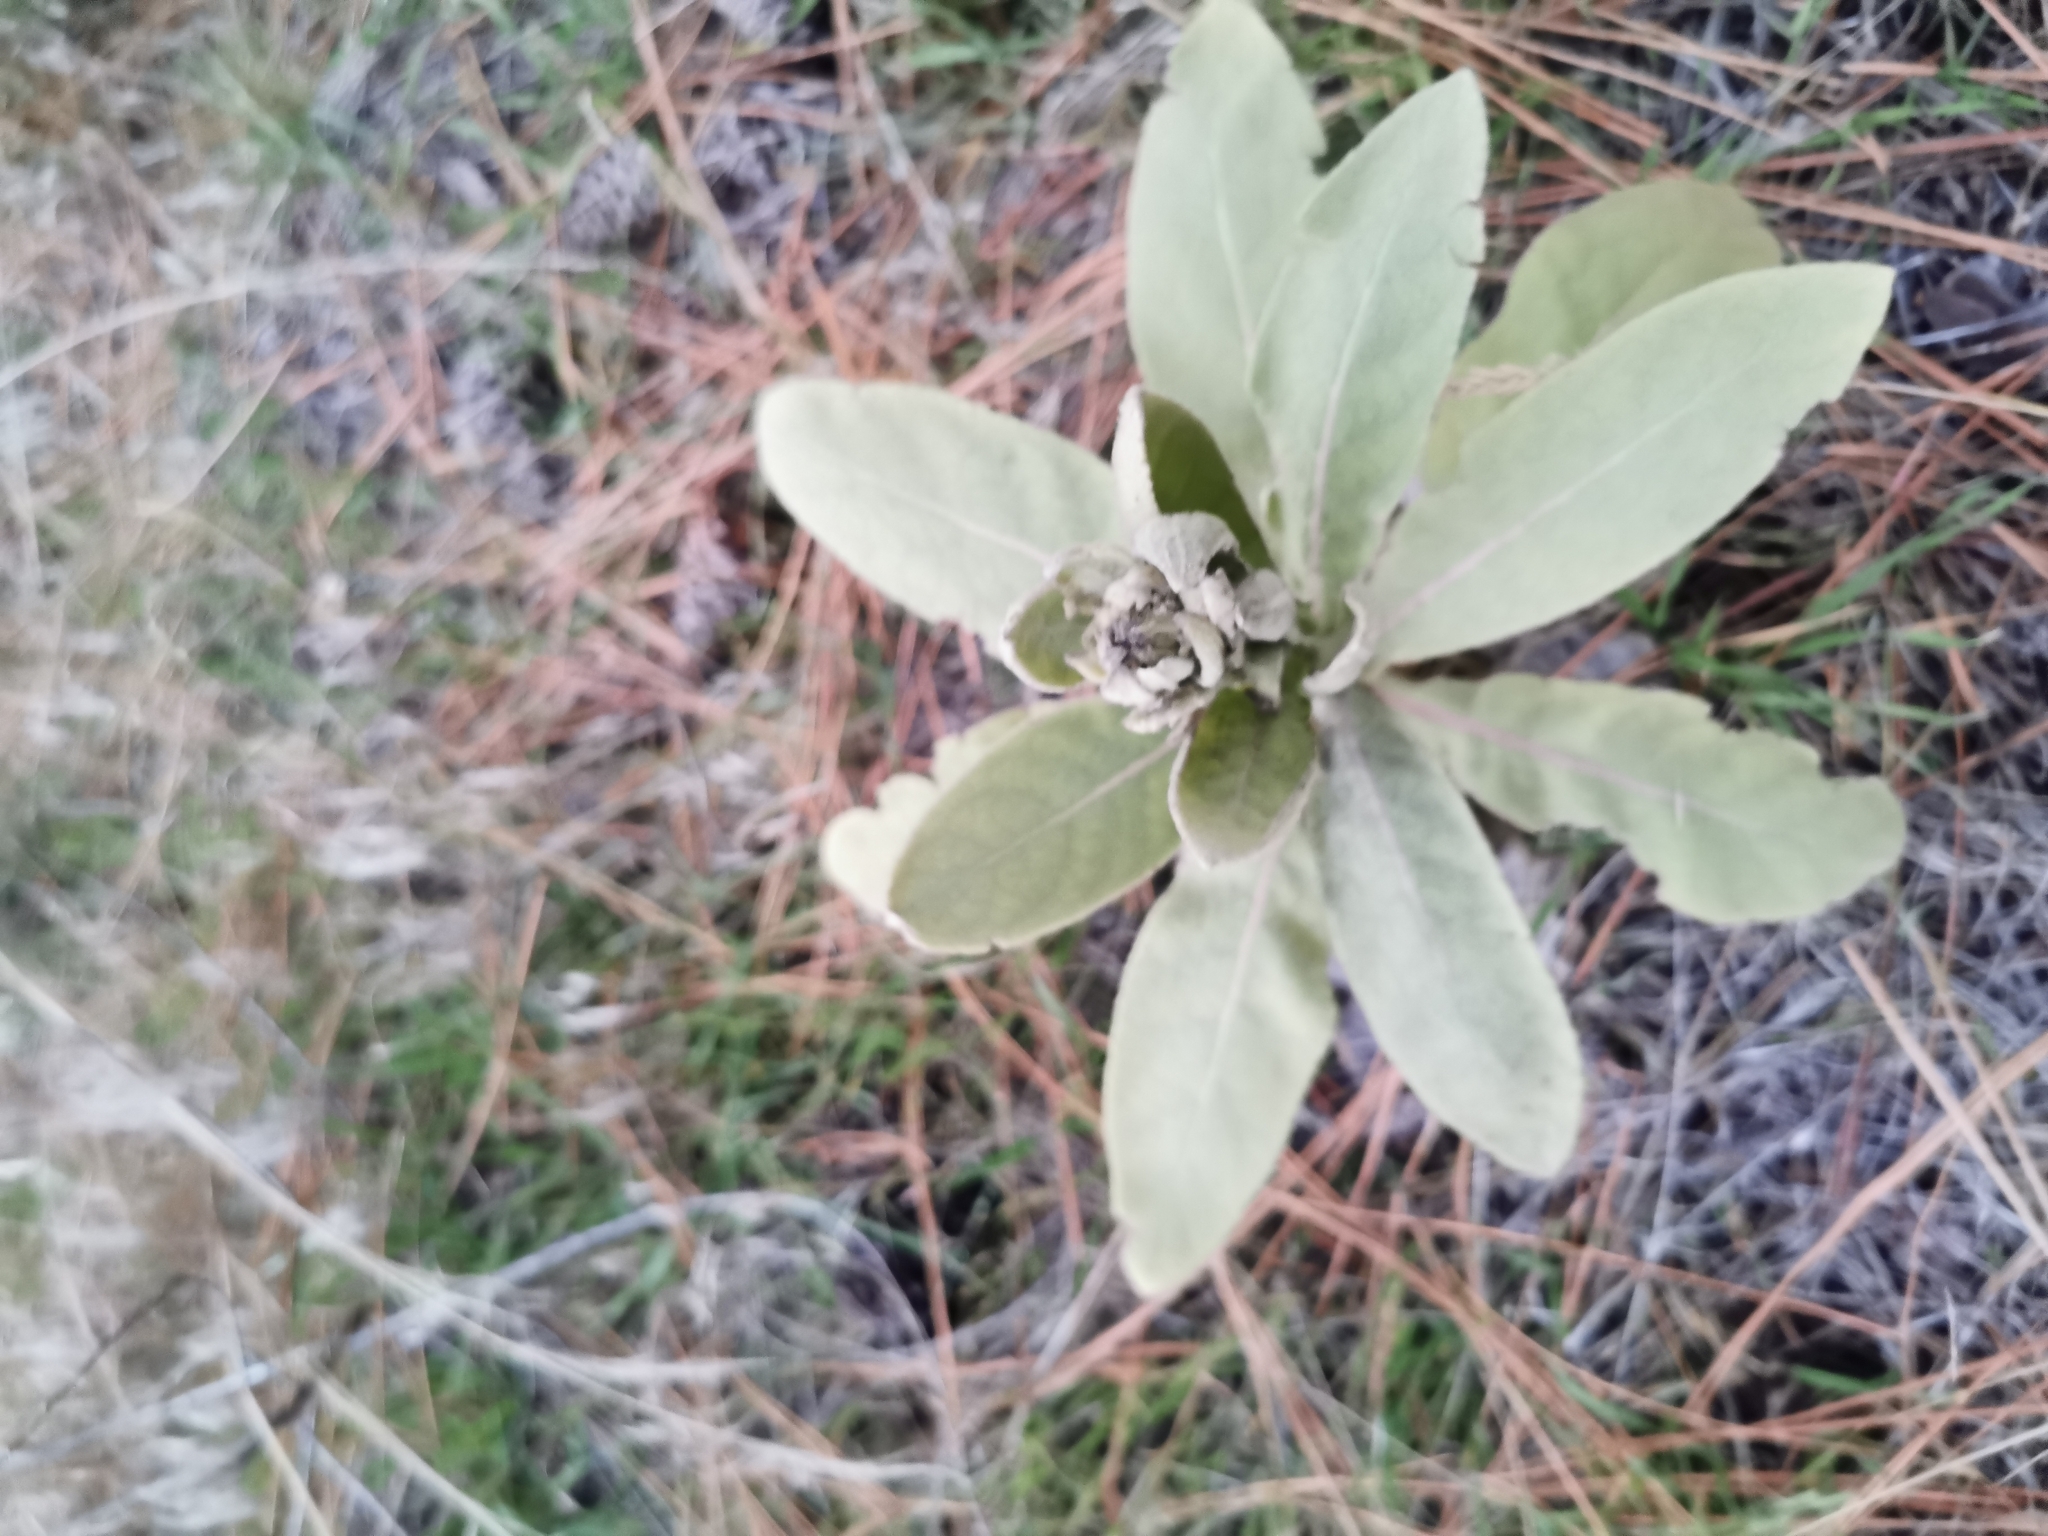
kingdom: Plantae
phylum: Tracheophyta
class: Magnoliopsida
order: Lamiales
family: Scrophulariaceae
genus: Verbascum
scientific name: Verbascum thapsus
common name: Common mullein
